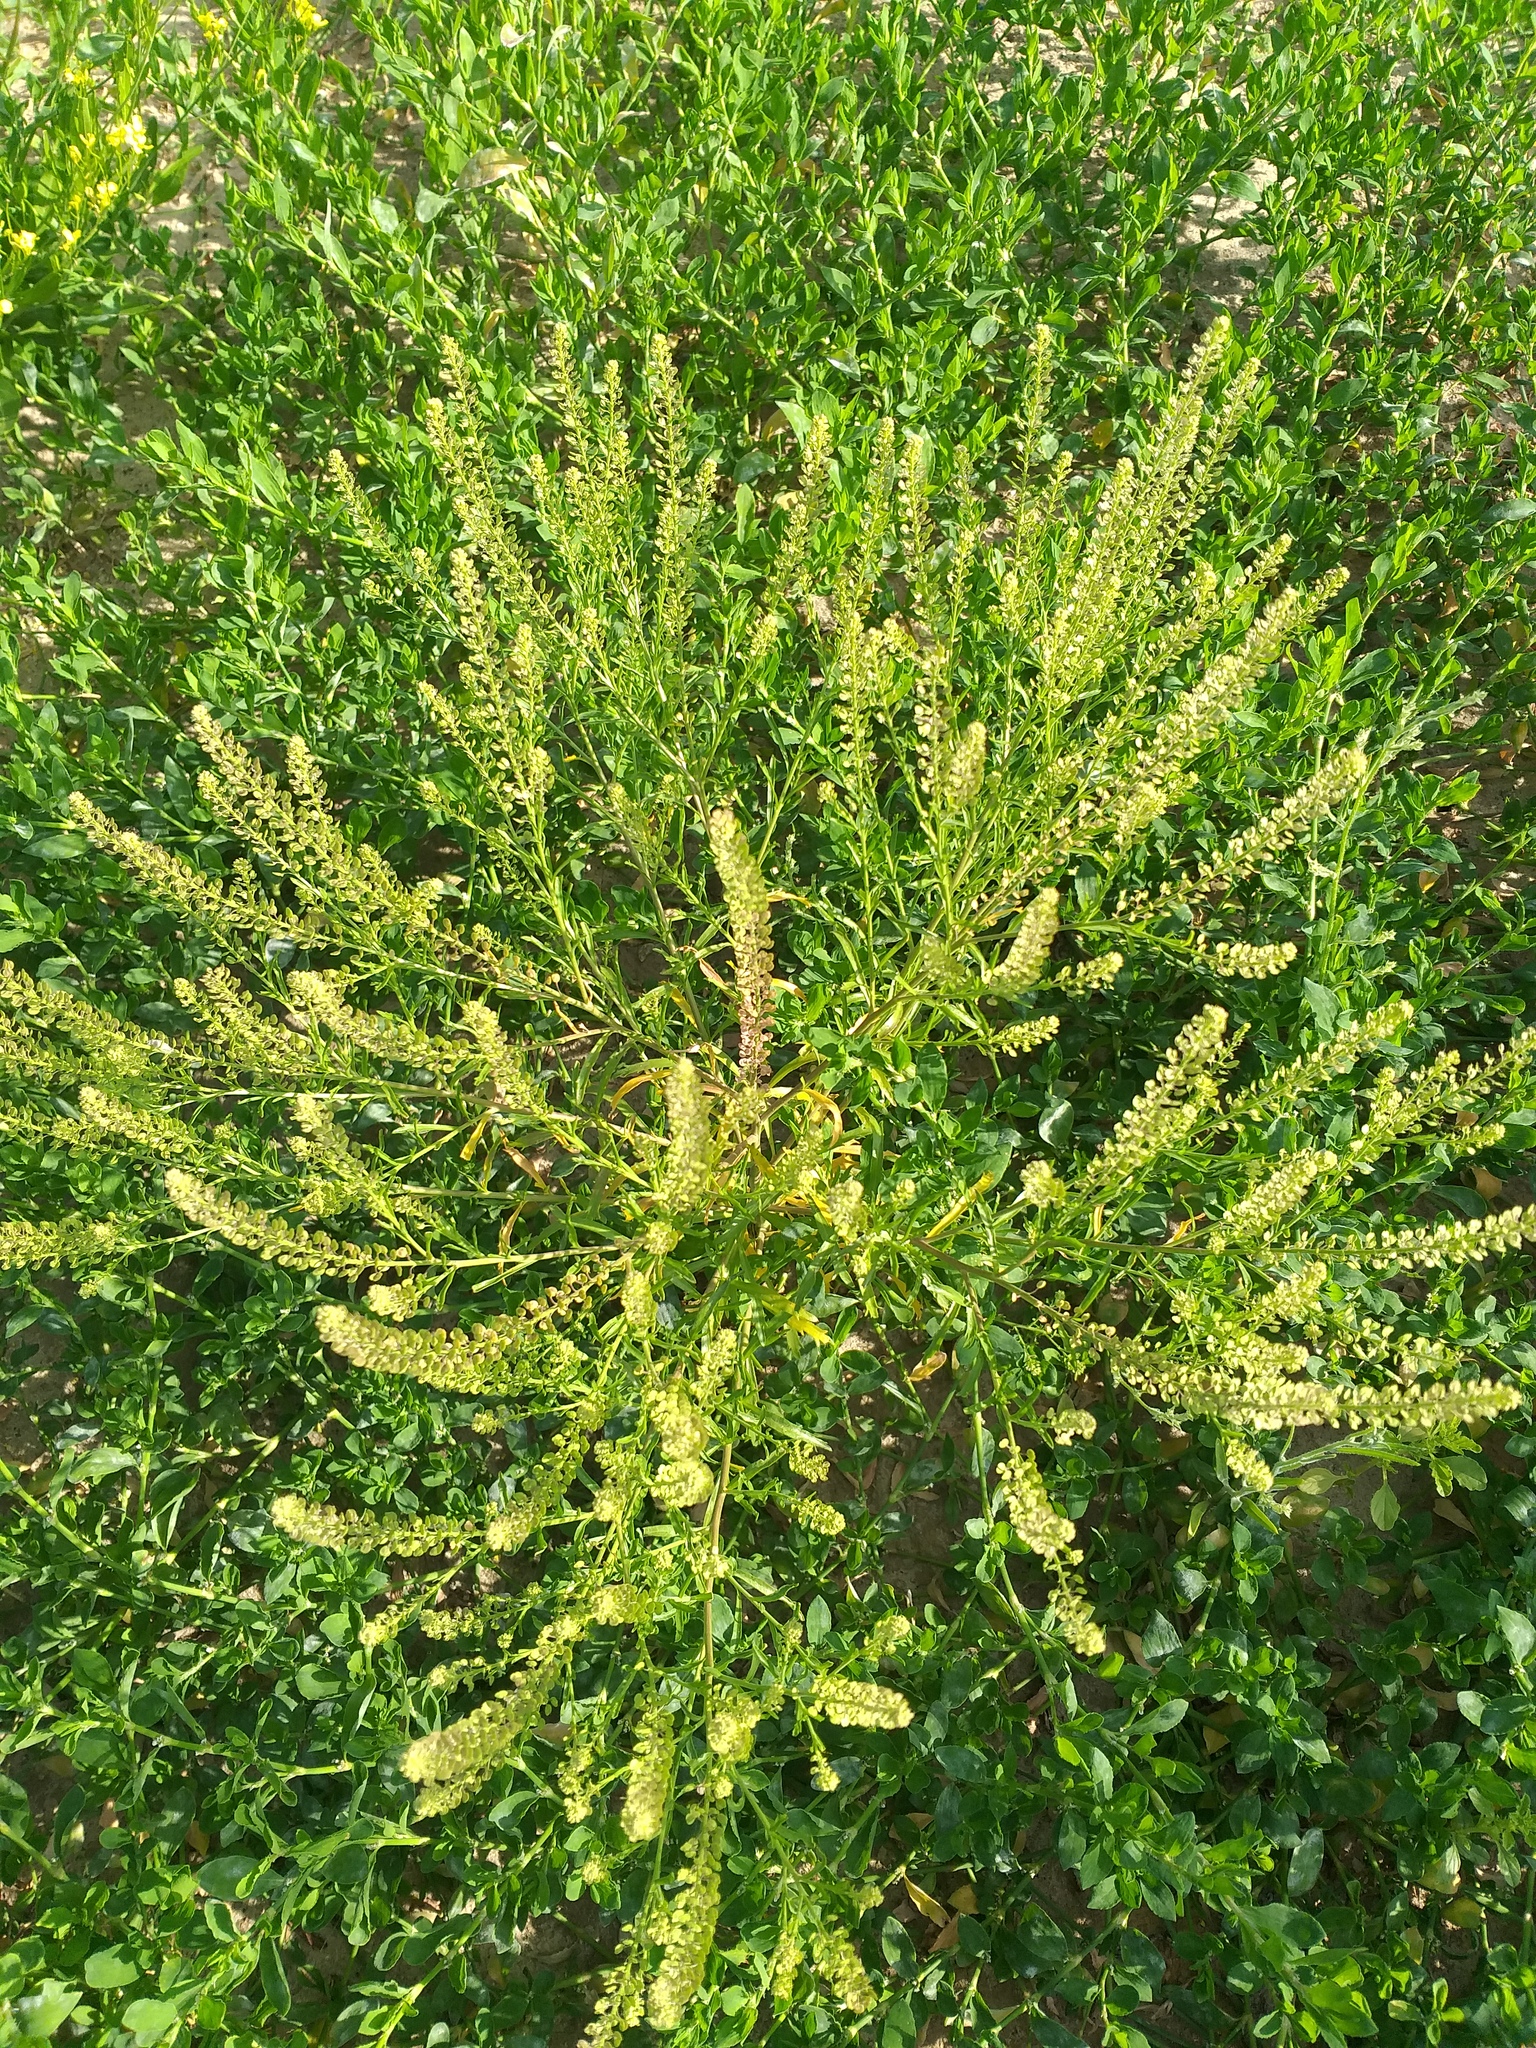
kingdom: Plantae
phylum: Tracheophyta
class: Magnoliopsida
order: Brassicales
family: Brassicaceae
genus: Lepidium
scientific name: Lepidium densiflorum
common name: Miner's pepperwort
